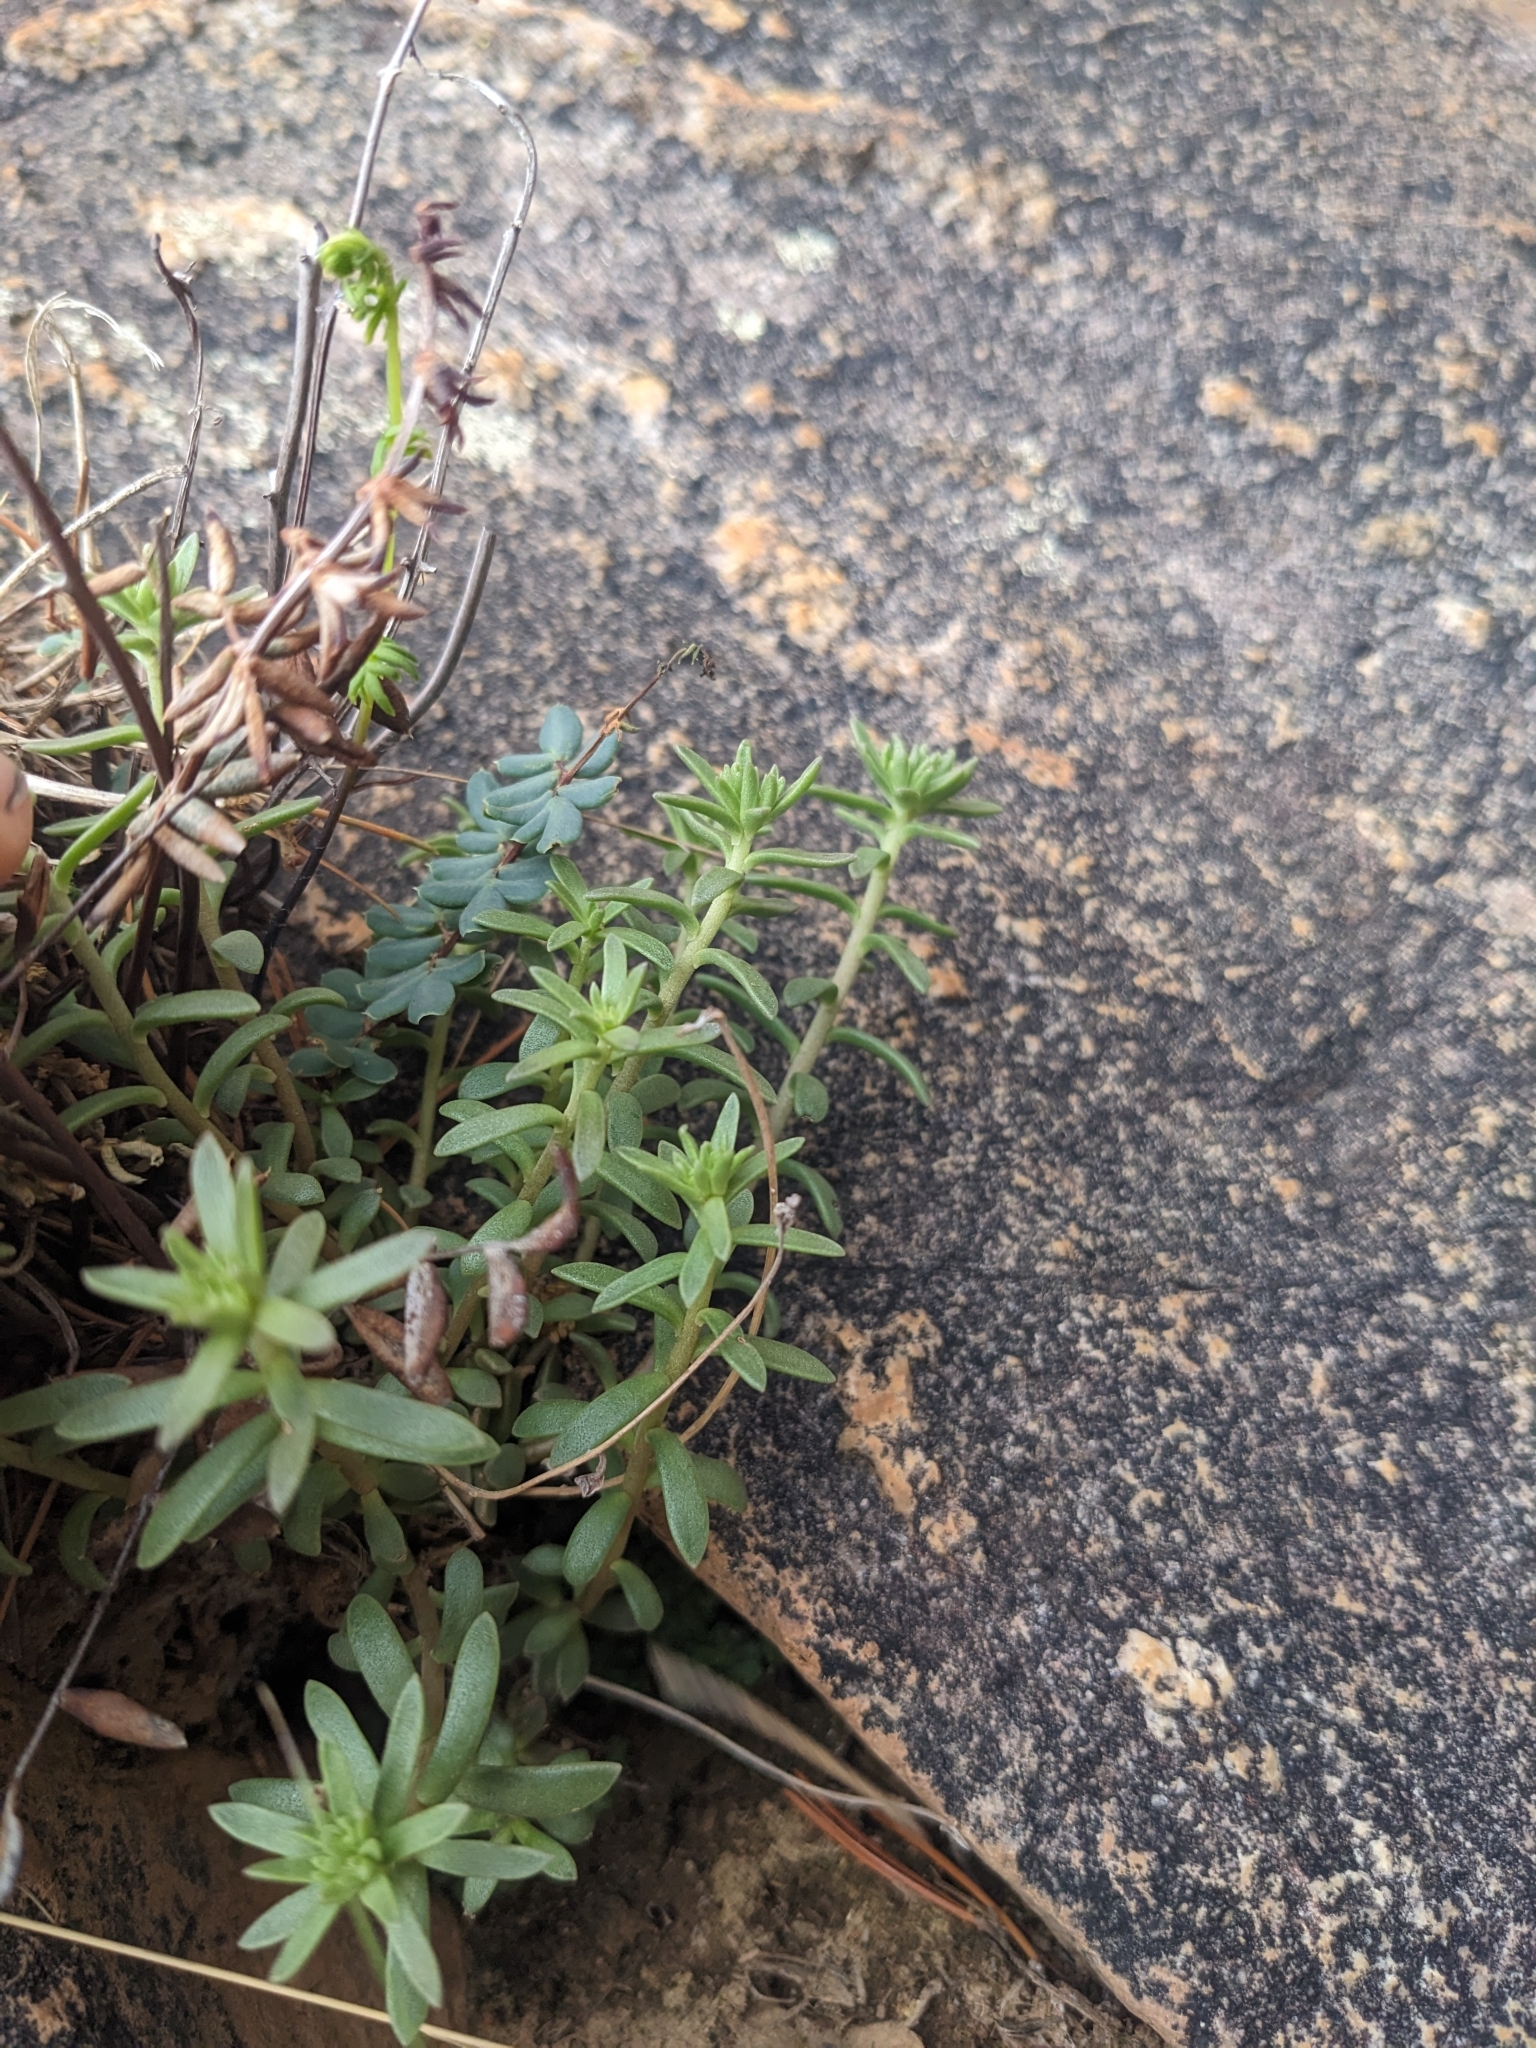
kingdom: Plantae
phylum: Tracheophyta
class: Magnoliopsida
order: Saxifragales
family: Crassulaceae
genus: Sedum
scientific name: Sedum cockerellii
